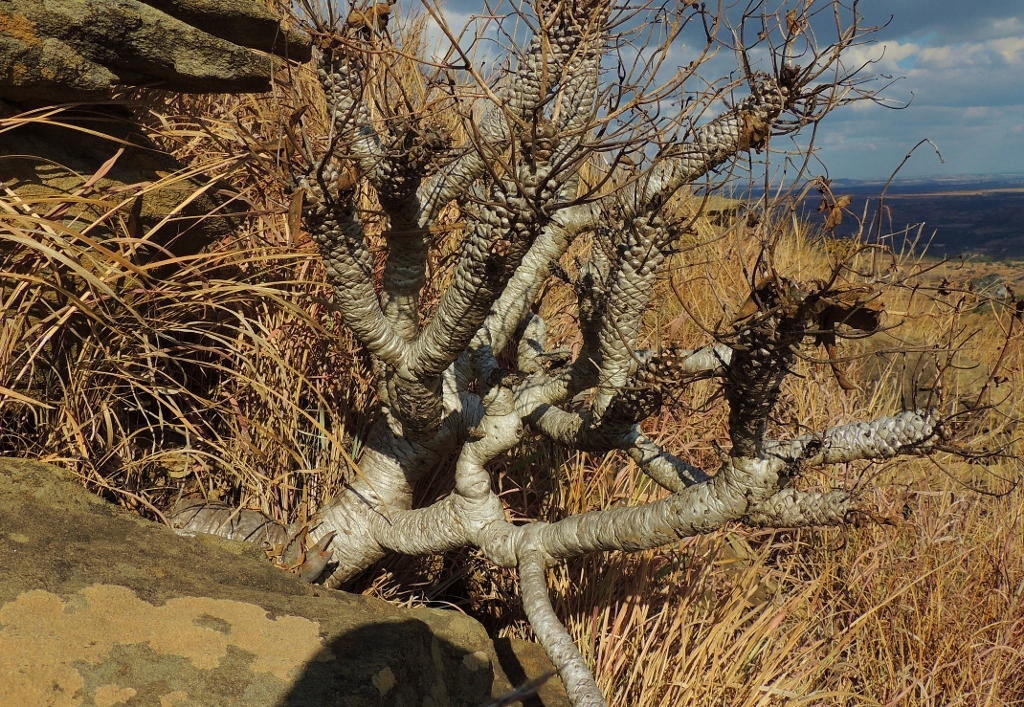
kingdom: Plantae
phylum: Tracheophyta
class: Magnoliopsida
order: Malpighiales
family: Euphorbiaceae
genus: Euphorbia
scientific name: Euphorbia wildii
